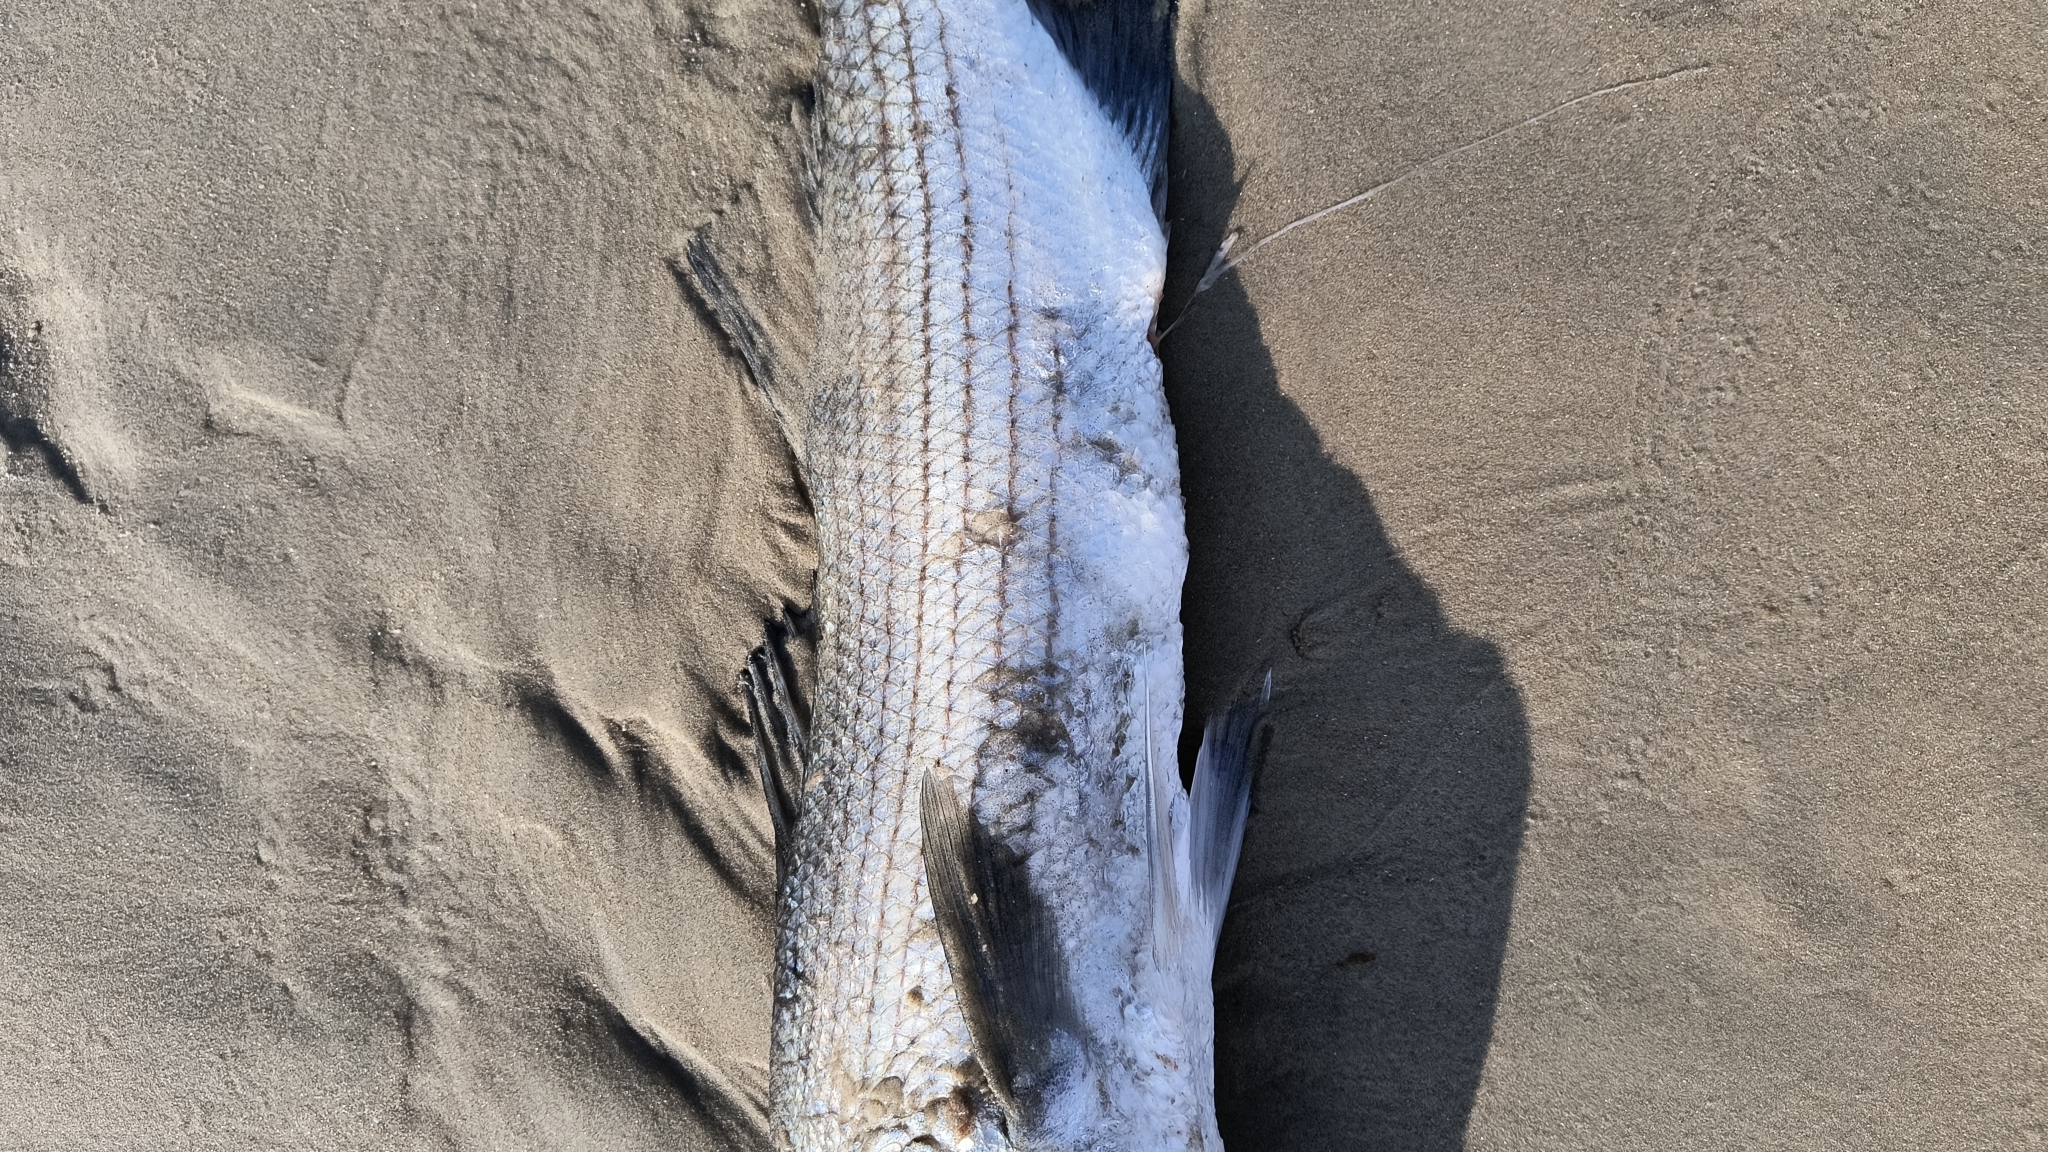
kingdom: Animalia
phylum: Chordata
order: Perciformes
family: Moronidae
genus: Morone
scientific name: Morone saxatilis
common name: Striped bass
